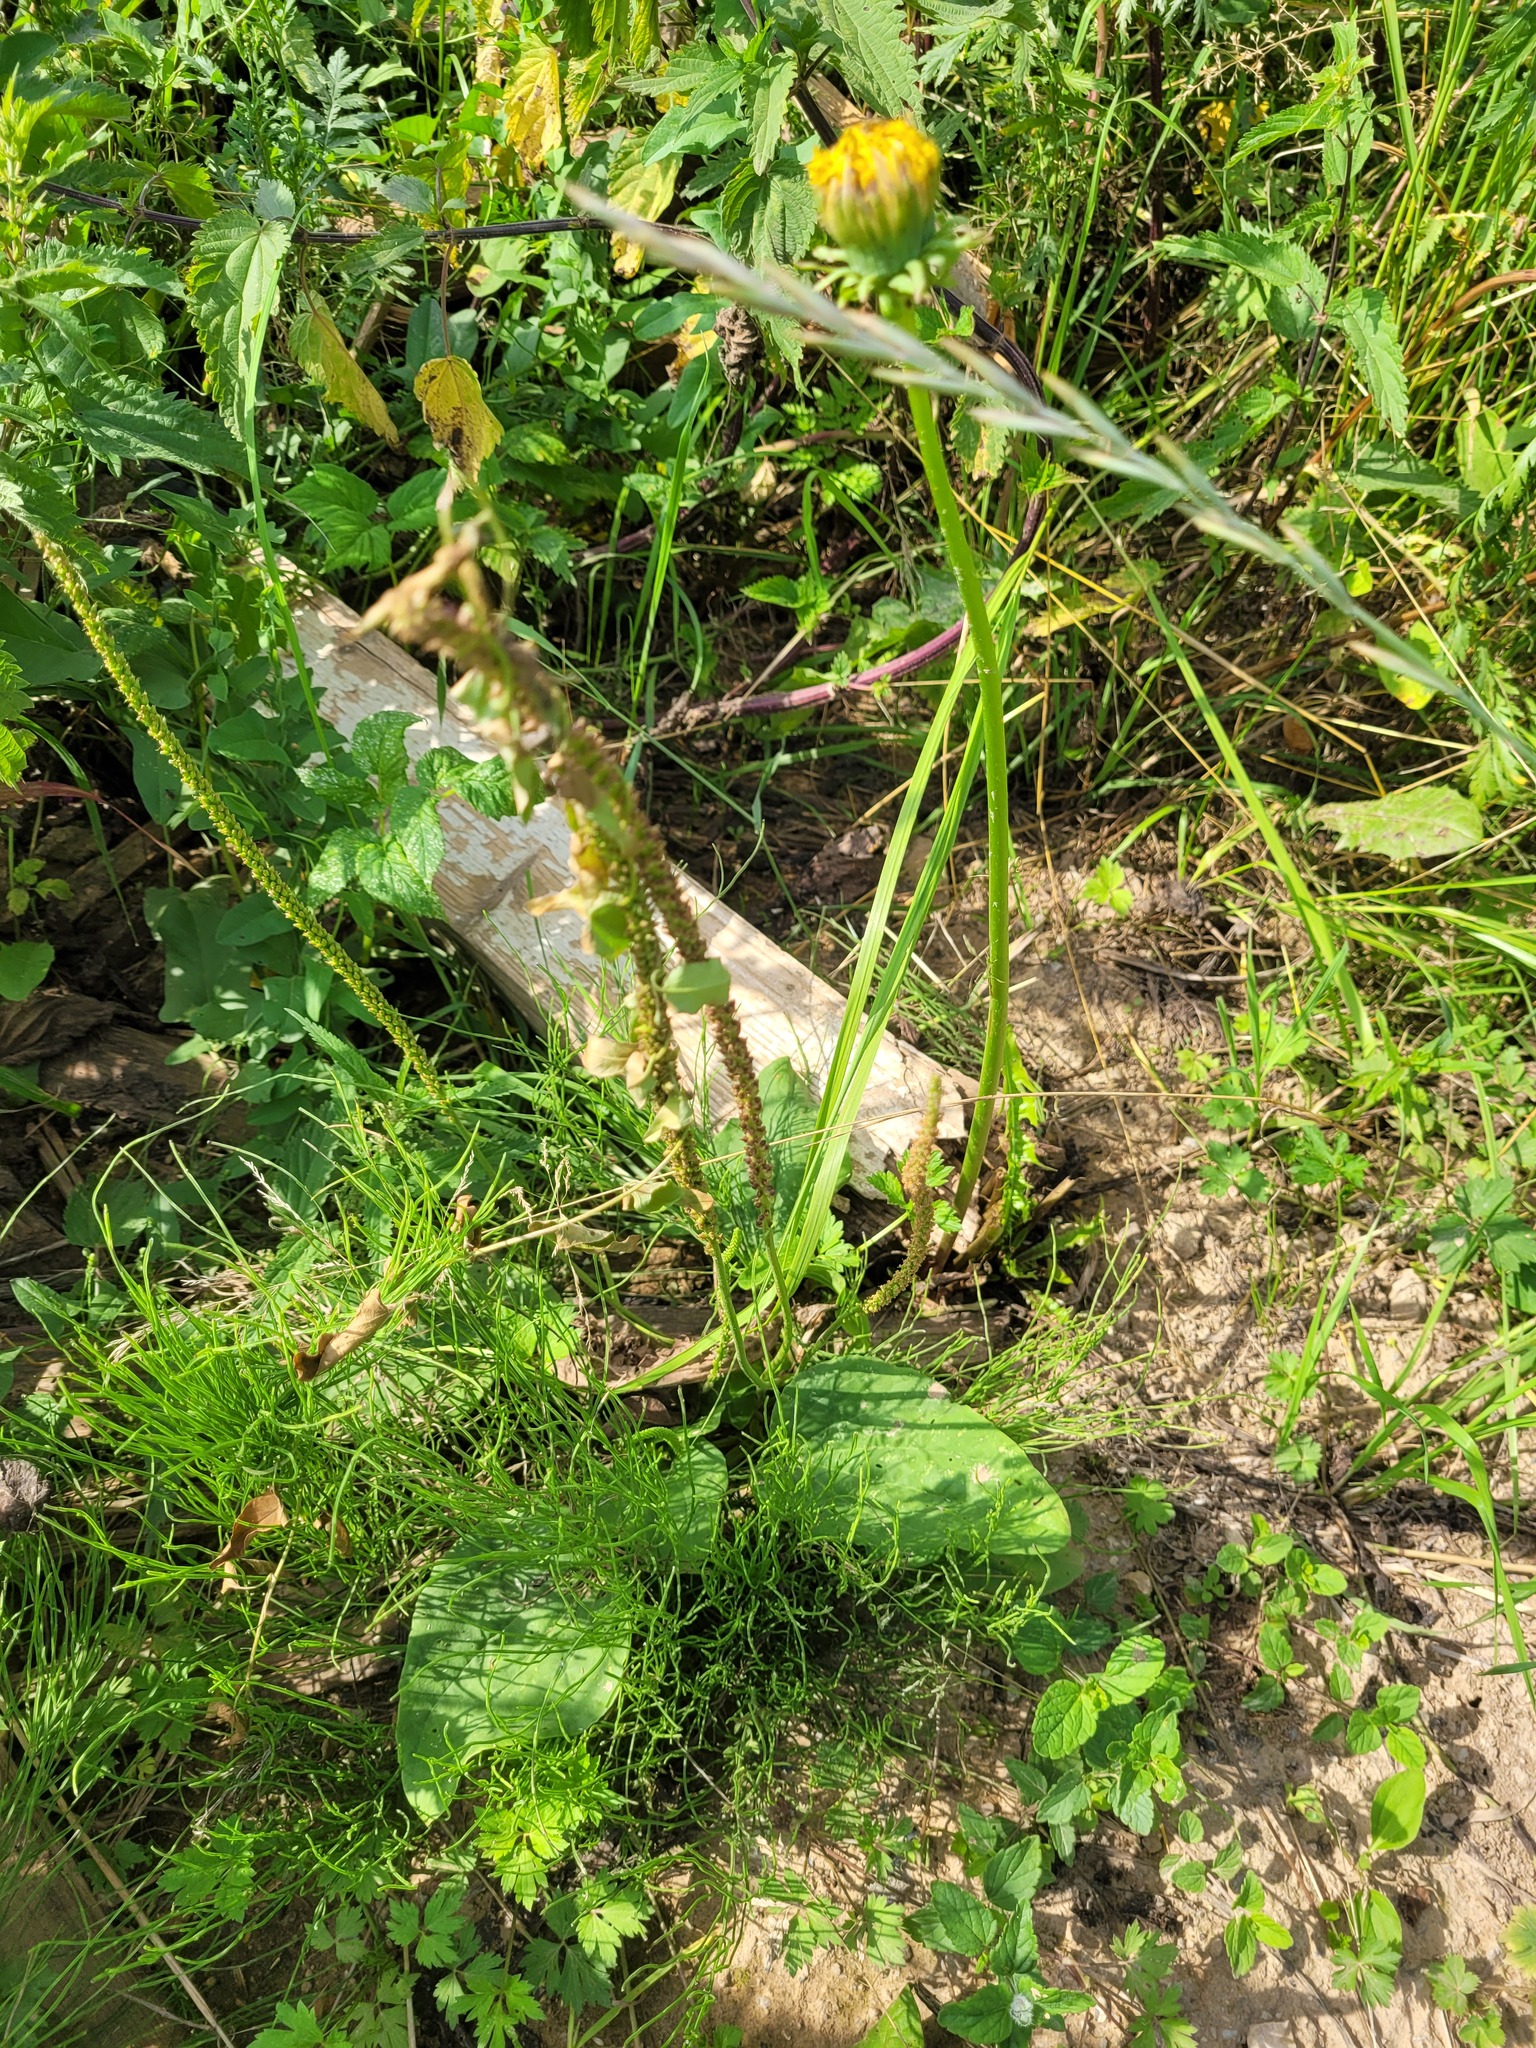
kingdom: Plantae
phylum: Tracheophyta
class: Magnoliopsida
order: Lamiales
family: Plantaginaceae
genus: Plantago
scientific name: Plantago major
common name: Common plantain
